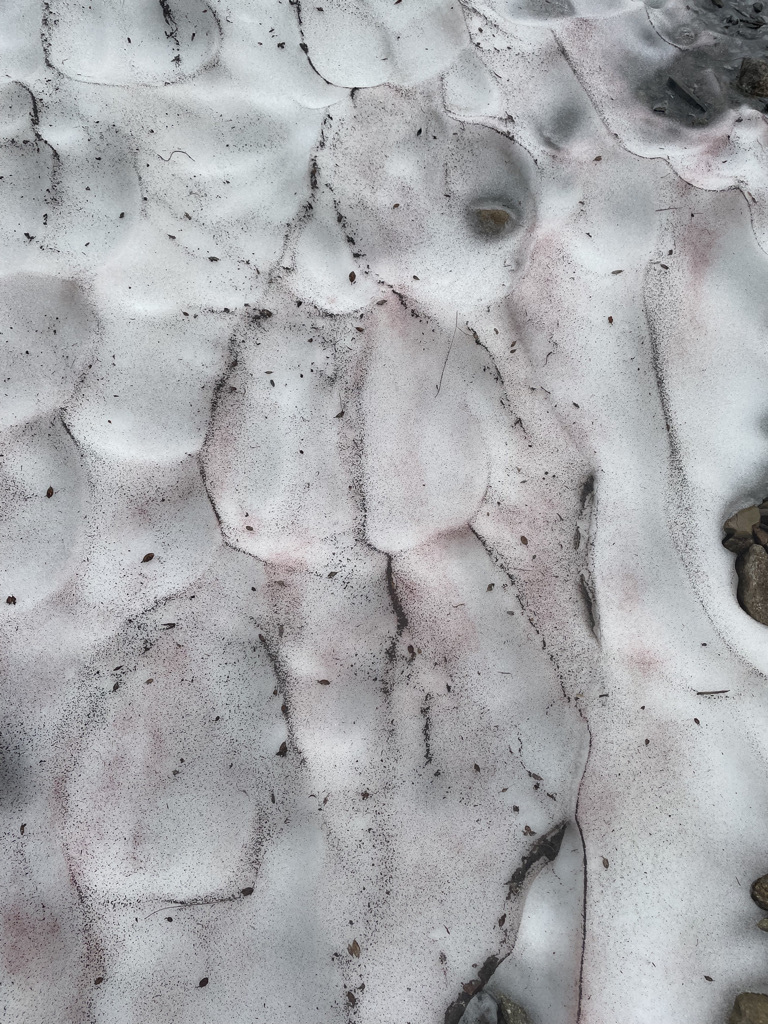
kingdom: Plantae
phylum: Chlorophyta
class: Chlorophyceae
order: Volvocales
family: Chlamydomonadaceae
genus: Chlamydomonas
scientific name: Chlamydomonas nivalis
